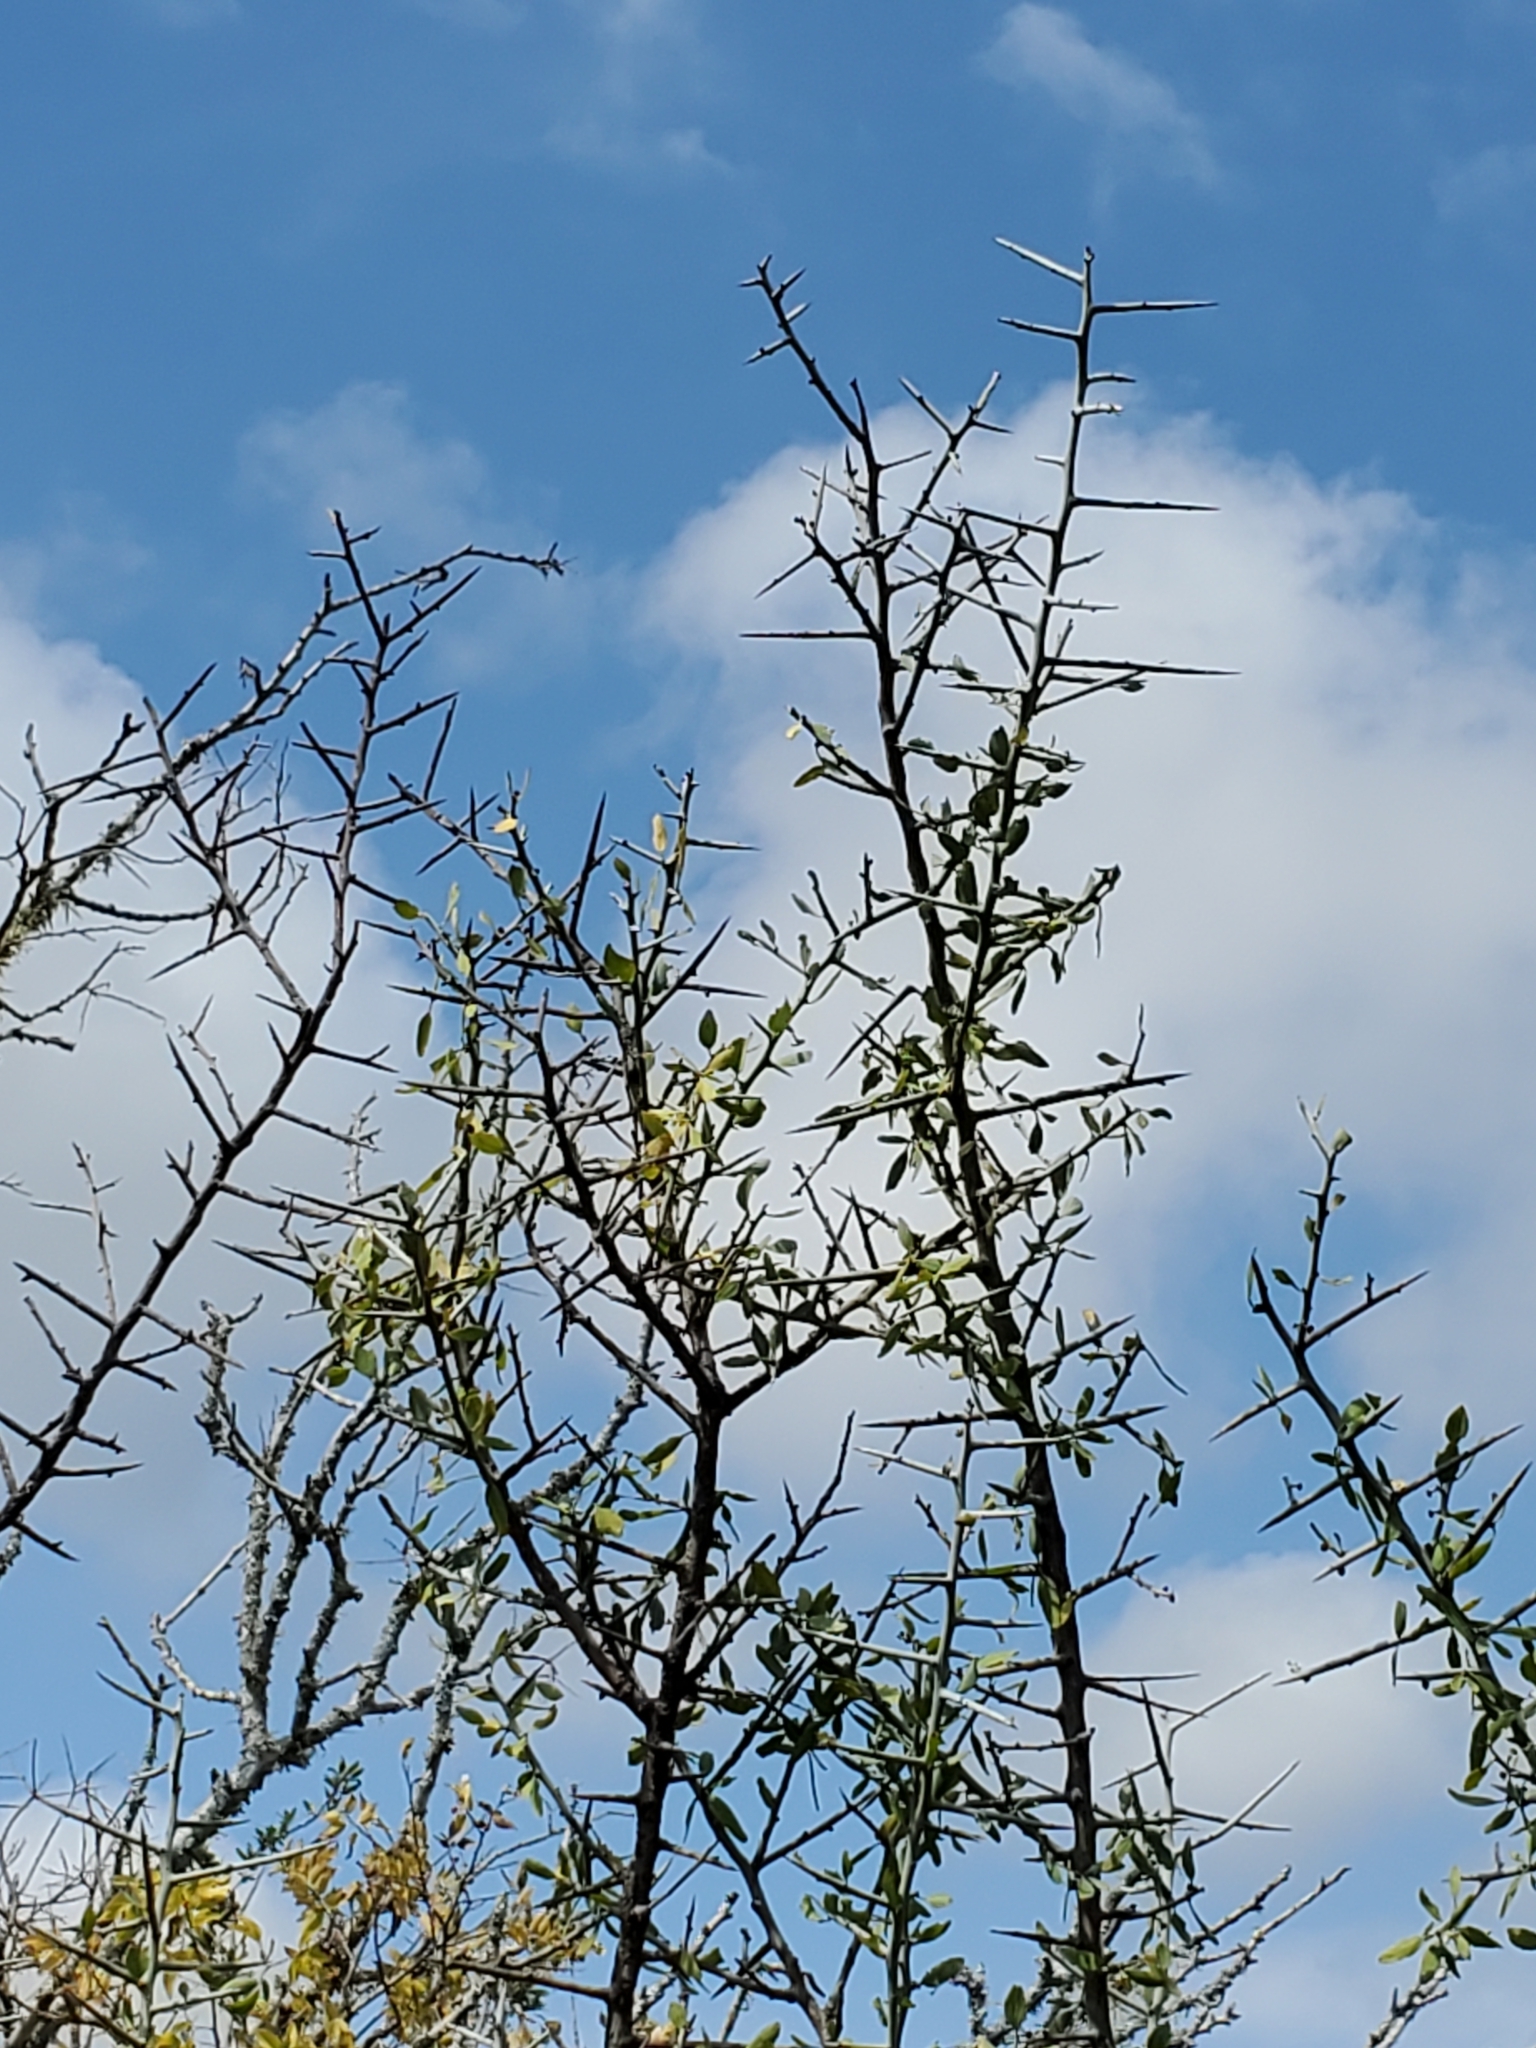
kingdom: Plantae
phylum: Tracheophyta
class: Magnoliopsida
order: Rosales
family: Rhamnaceae
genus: Sarcomphalus
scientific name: Sarcomphalus obtusifolius
